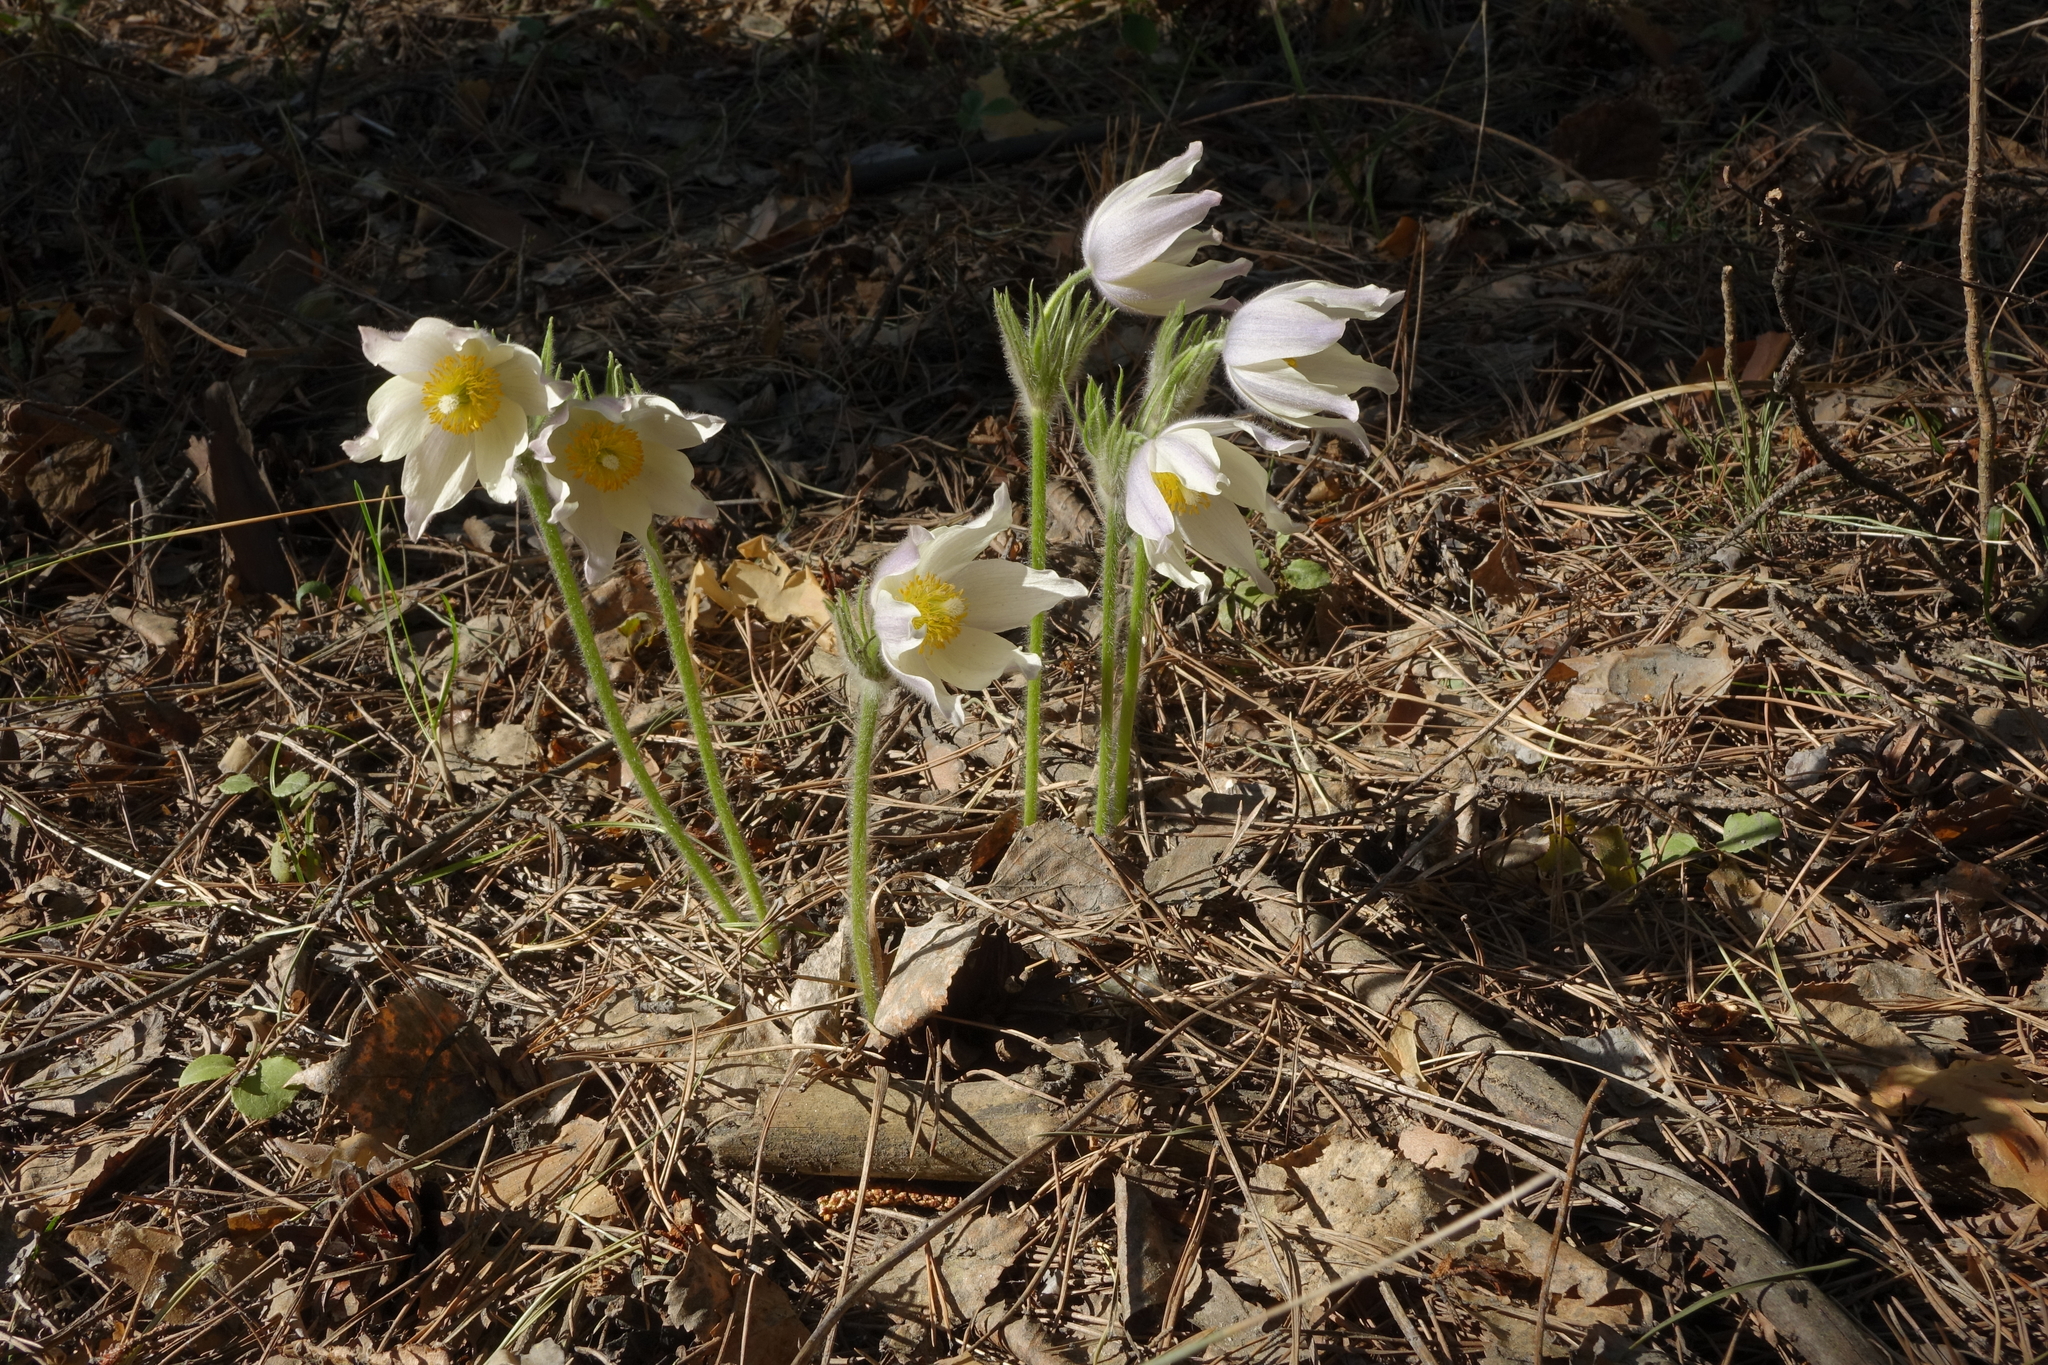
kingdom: Plantae
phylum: Tracheophyta
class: Magnoliopsida
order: Ranunculales
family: Ranunculaceae
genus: Pulsatilla
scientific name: Pulsatilla patens
